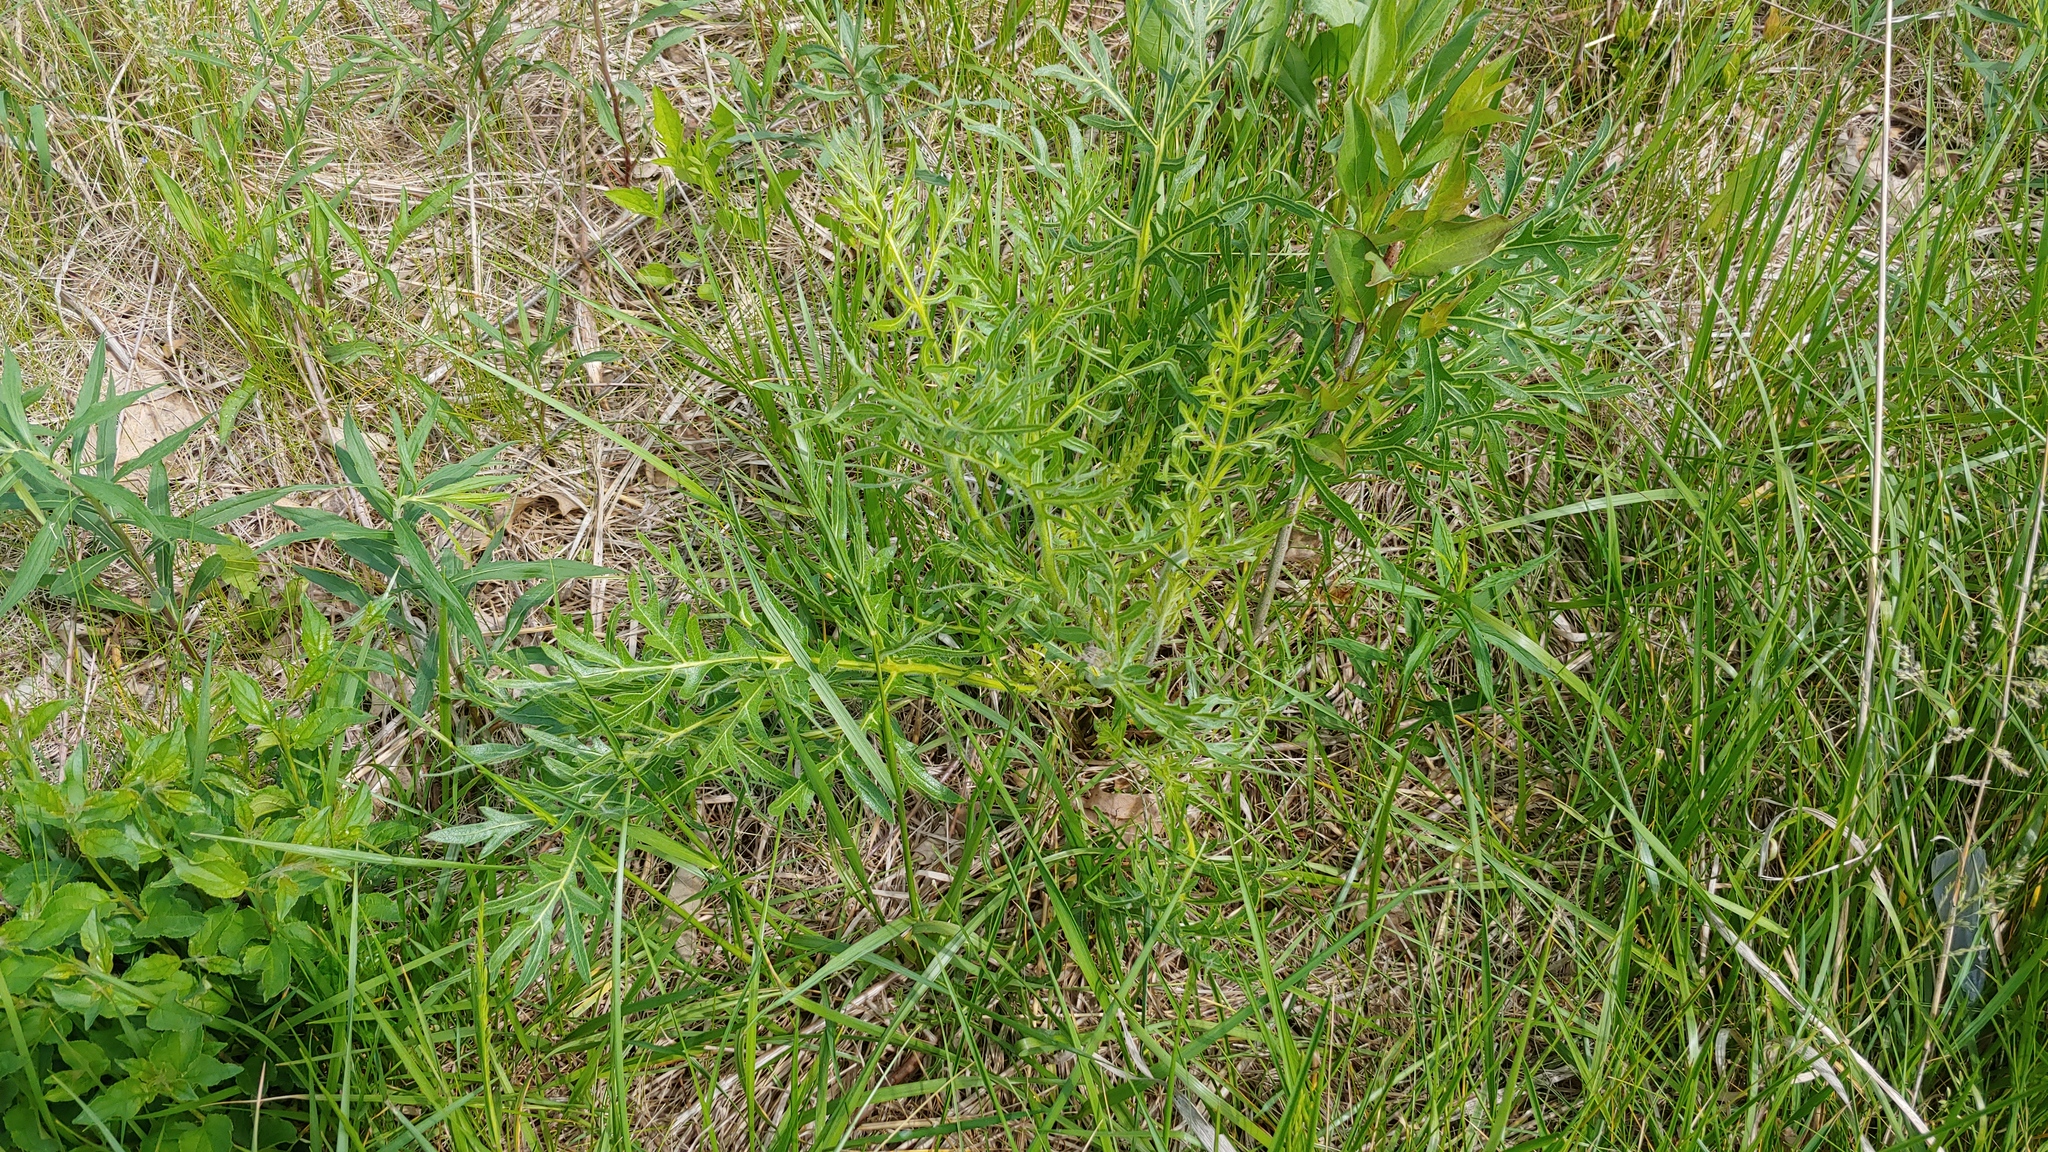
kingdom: Plantae
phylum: Tracheophyta
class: Magnoliopsida
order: Asterales
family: Asteraceae
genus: Silphium
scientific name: Silphium laciniatum
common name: Polarplant
